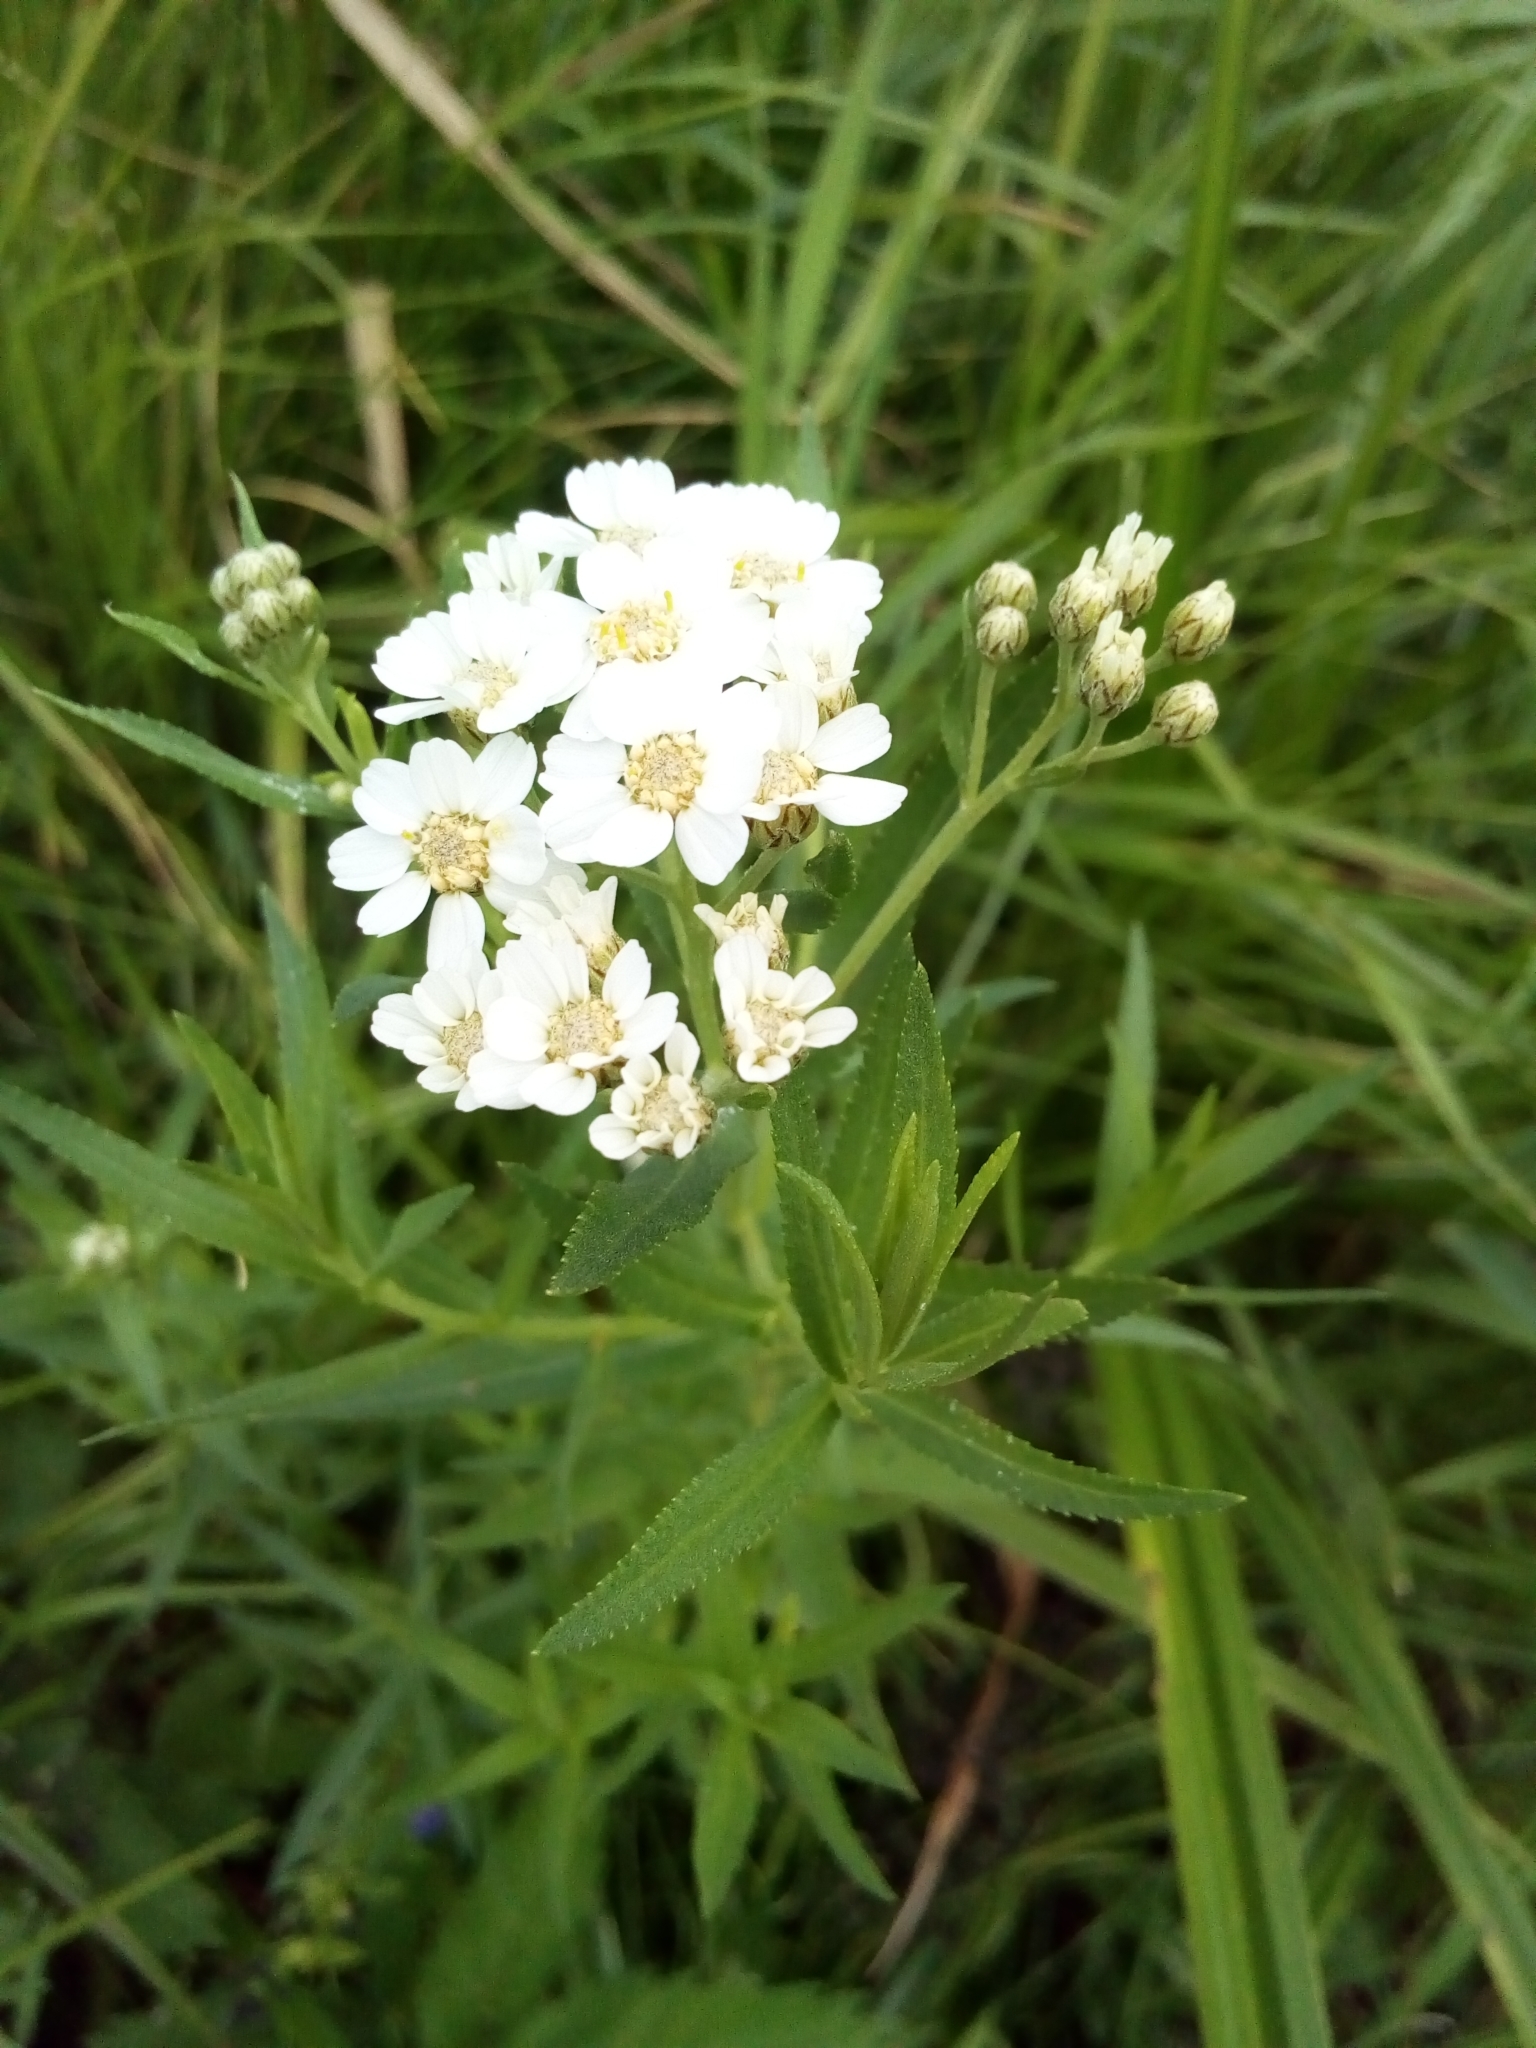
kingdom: Plantae
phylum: Tracheophyta
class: Magnoliopsida
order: Asterales
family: Asteraceae
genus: Achillea
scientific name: Achillea salicifolia
